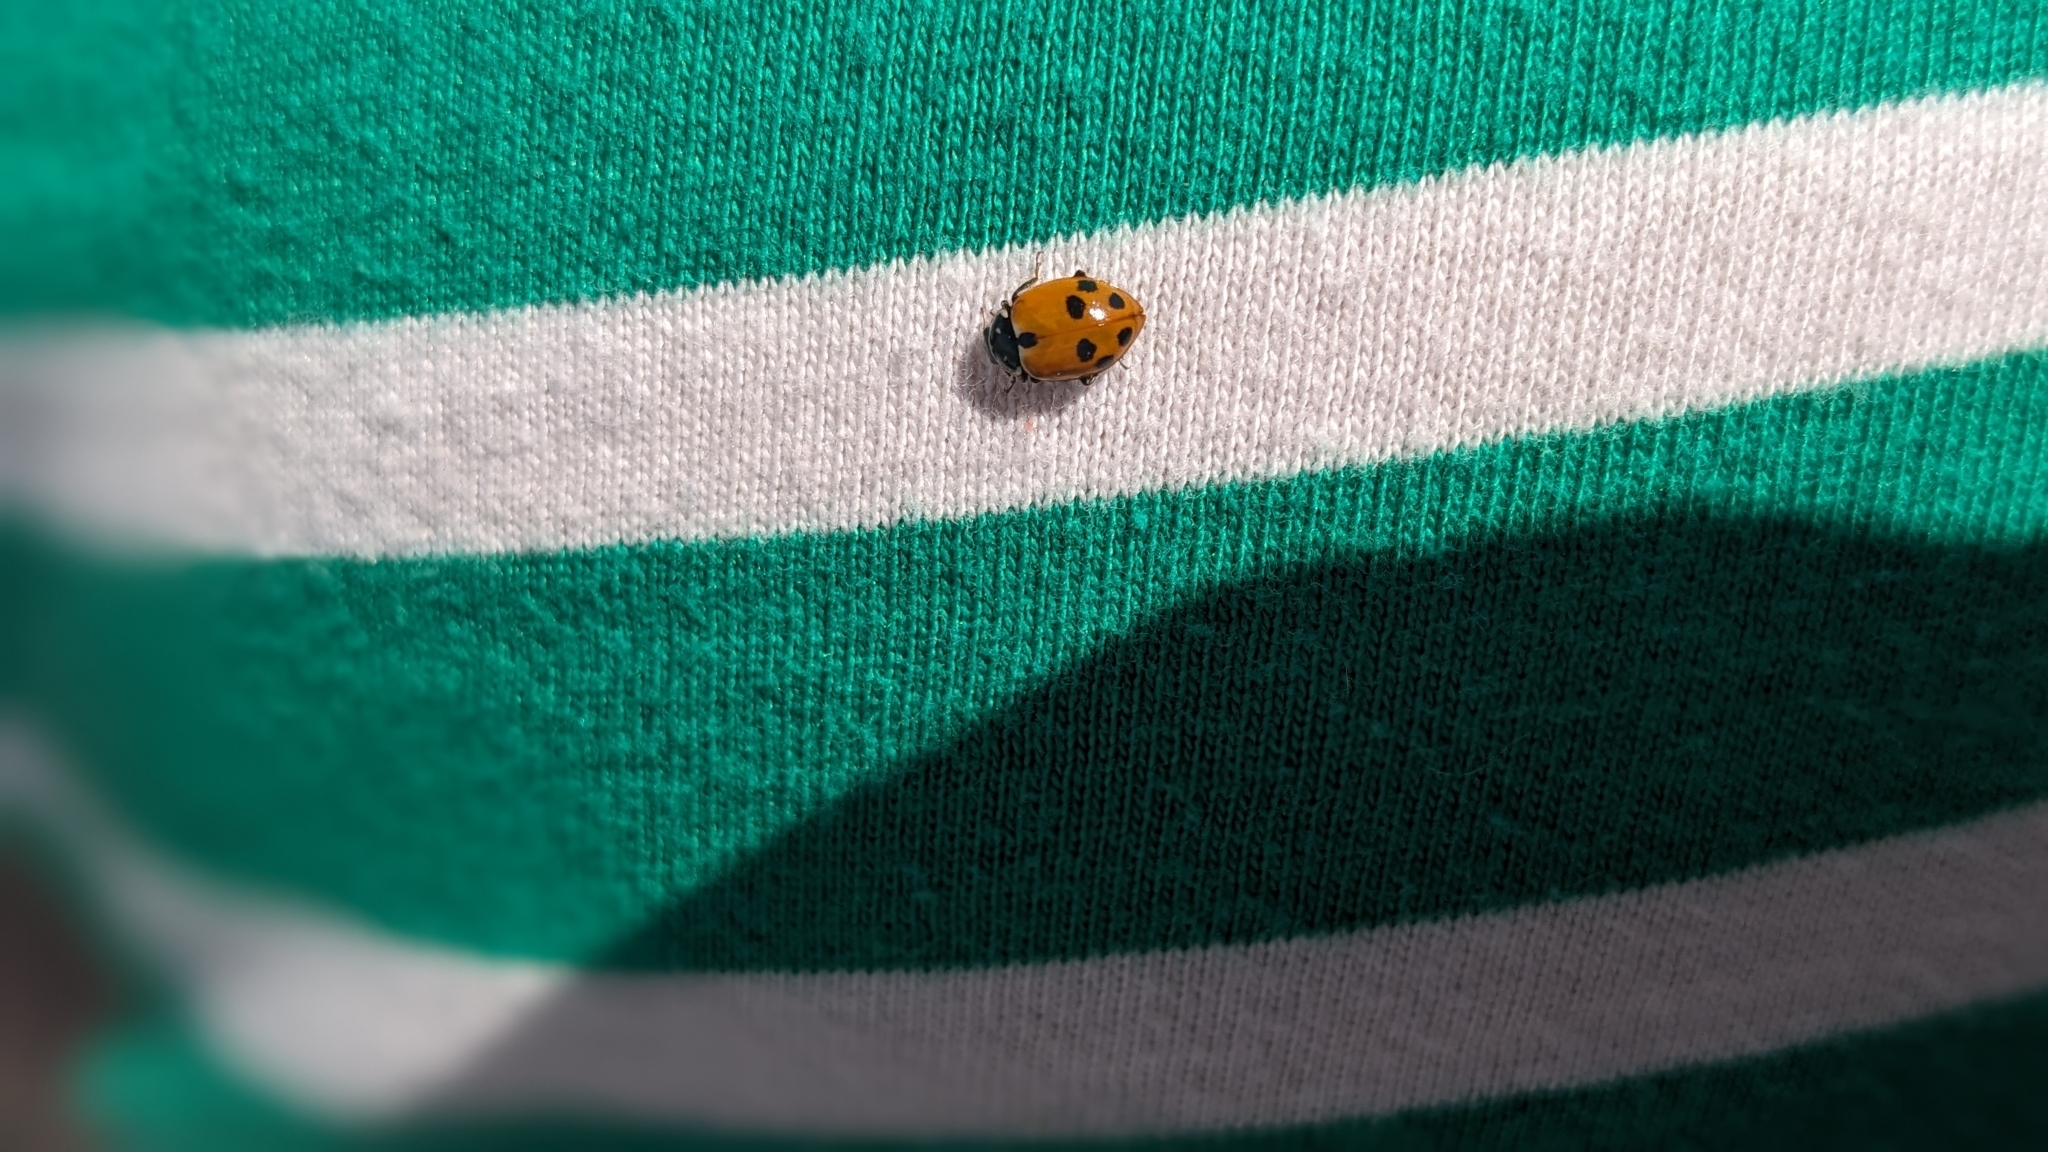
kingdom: Animalia
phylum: Arthropoda
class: Insecta
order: Coleoptera
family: Coccinellidae
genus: Hippodamia
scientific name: Hippodamia variegata
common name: Ladybird beetle
